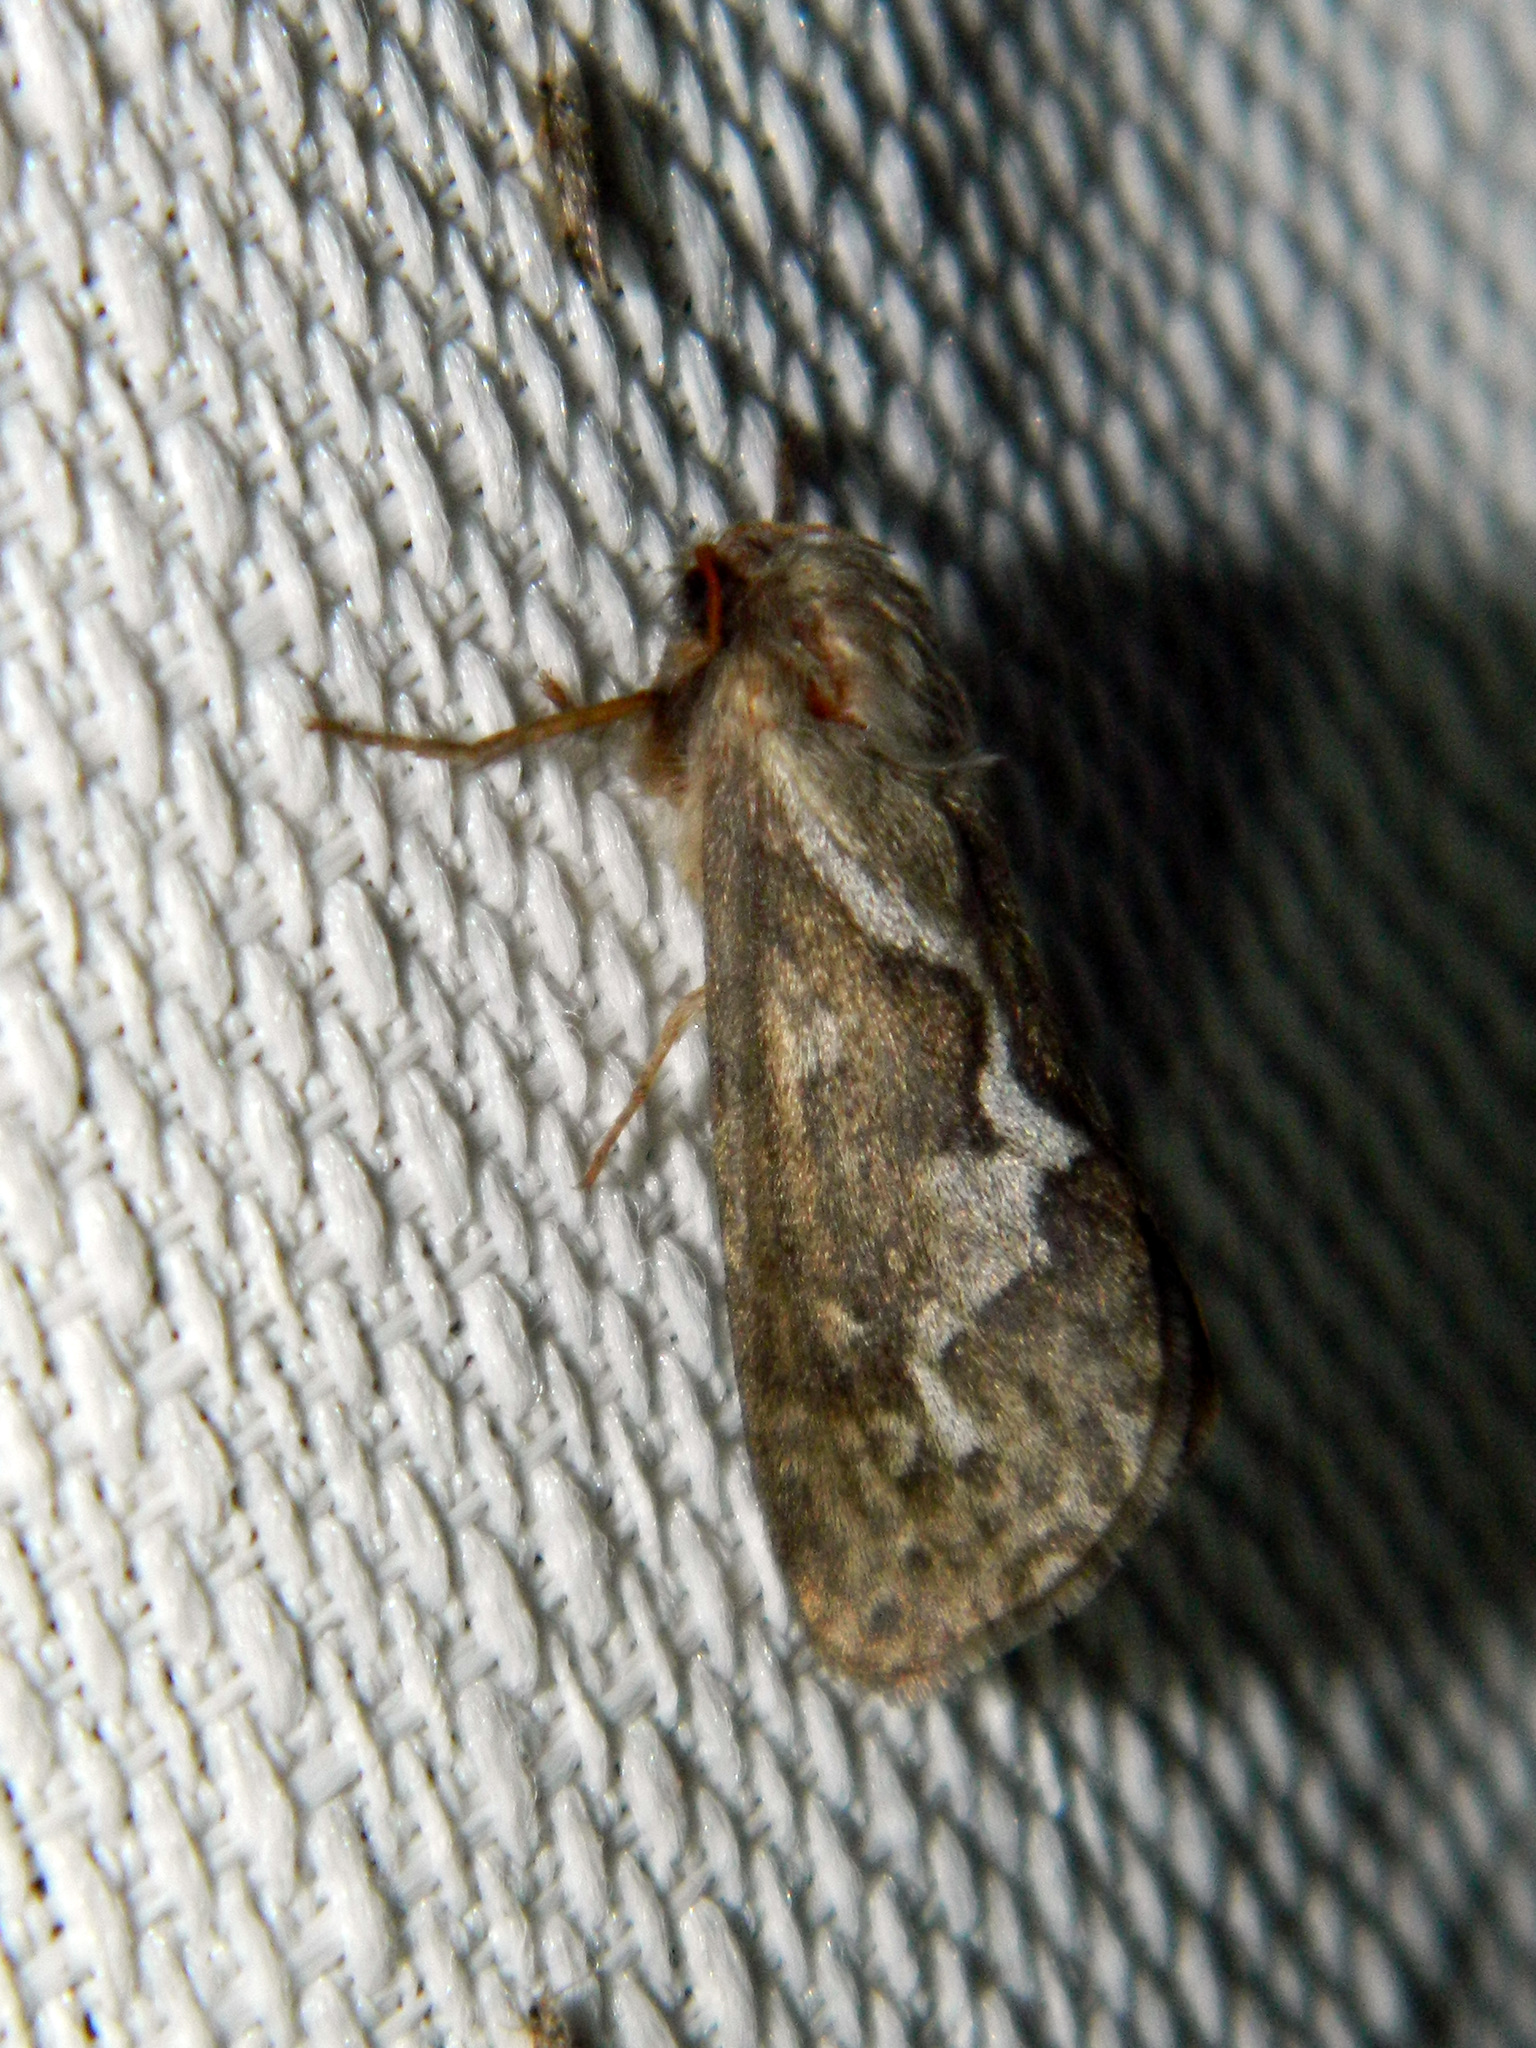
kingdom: Animalia
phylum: Arthropoda
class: Insecta
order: Lepidoptera
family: Hepialidae
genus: Korscheltellus
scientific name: Korscheltellus lupulina
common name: Common swift
